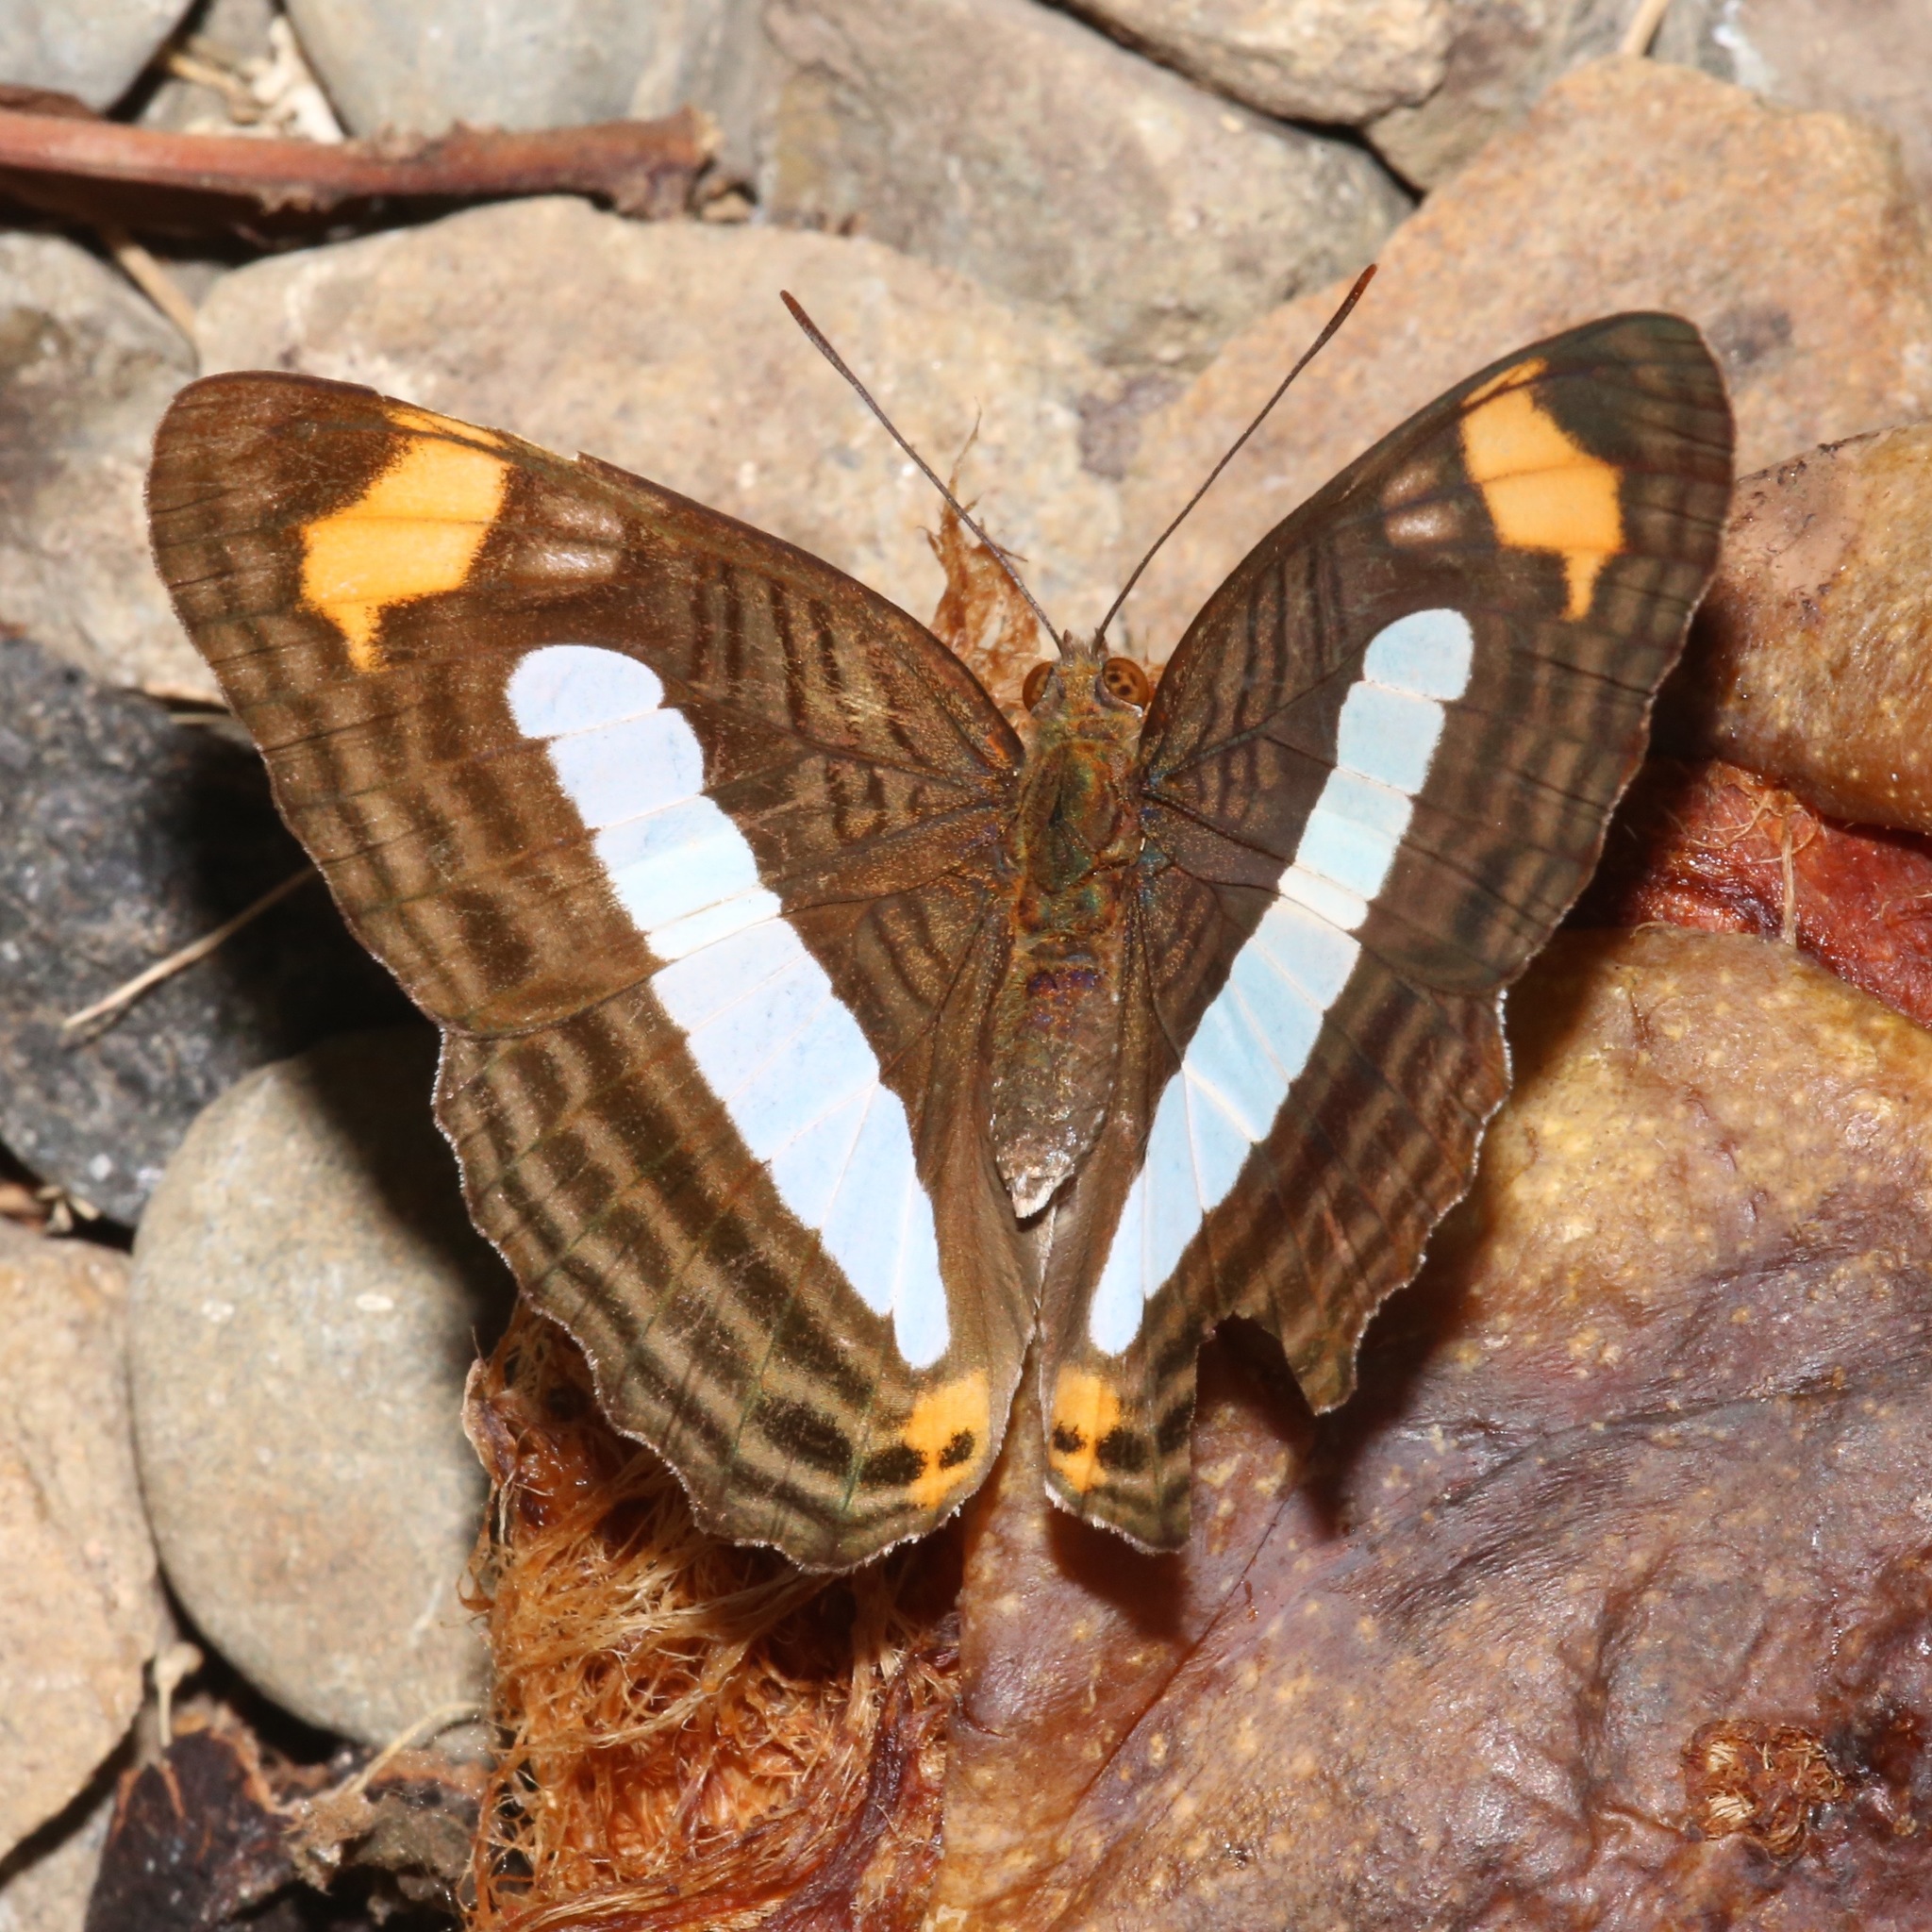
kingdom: Animalia
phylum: Arthropoda
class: Insecta
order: Lepidoptera
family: Nymphalidae
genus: Limenitis
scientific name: Limenitis Adelpha iphiclus
